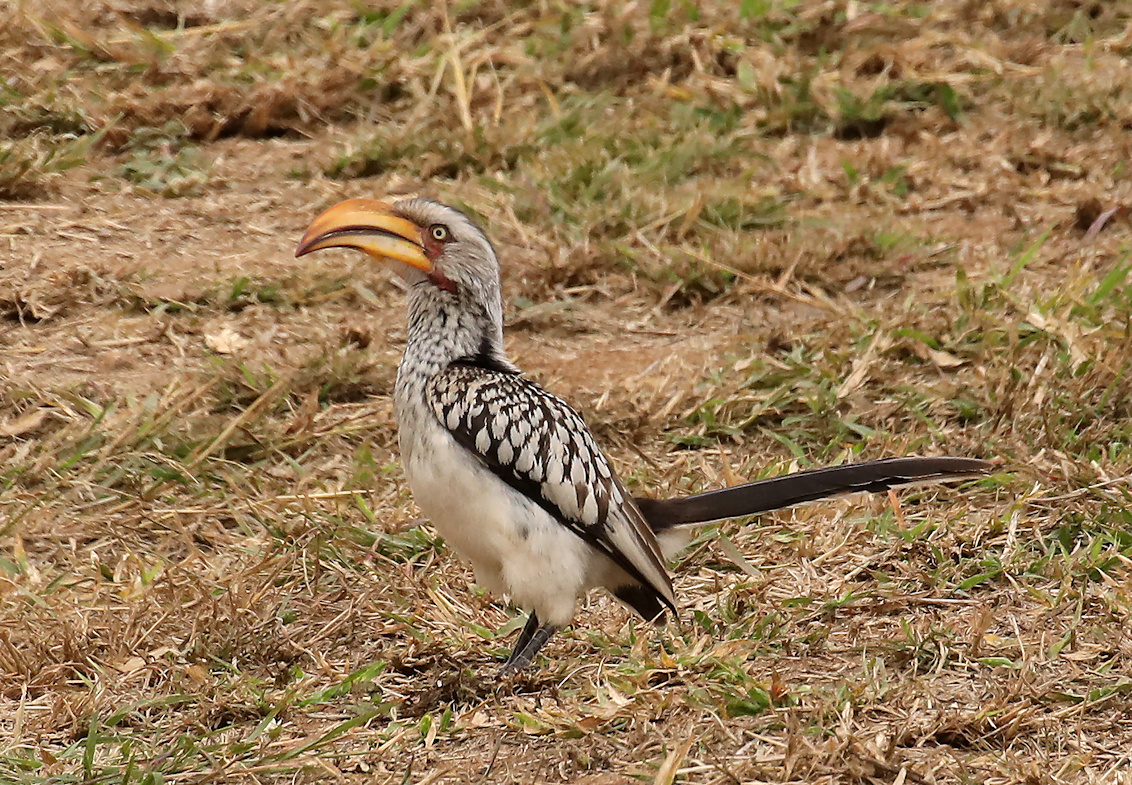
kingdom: Animalia
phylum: Chordata
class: Aves
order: Bucerotiformes
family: Bucerotidae
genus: Tockus
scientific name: Tockus leucomelas
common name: Southern yellow-billed hornbill
